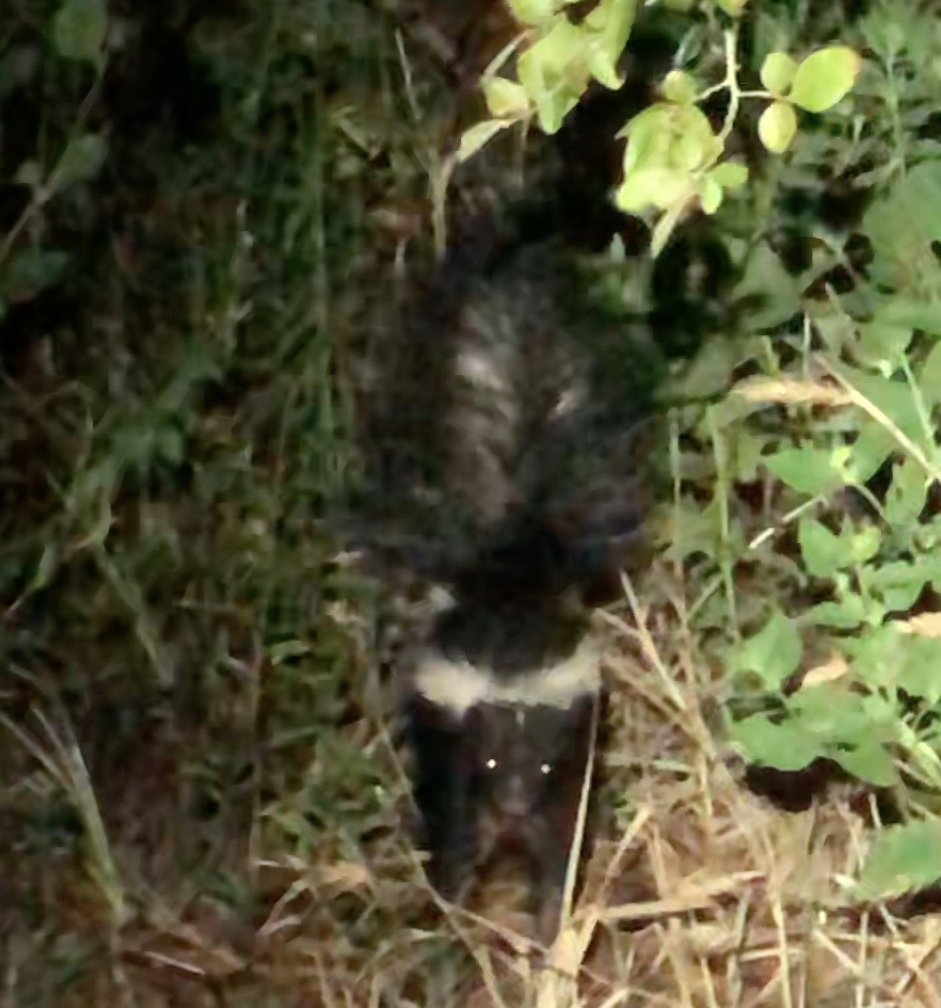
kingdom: Animalia
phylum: Chordata
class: Mammalia
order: Carnivora
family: Mephitidae
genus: Mephitis
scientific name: Mephitis mephitis
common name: Striped skunk
